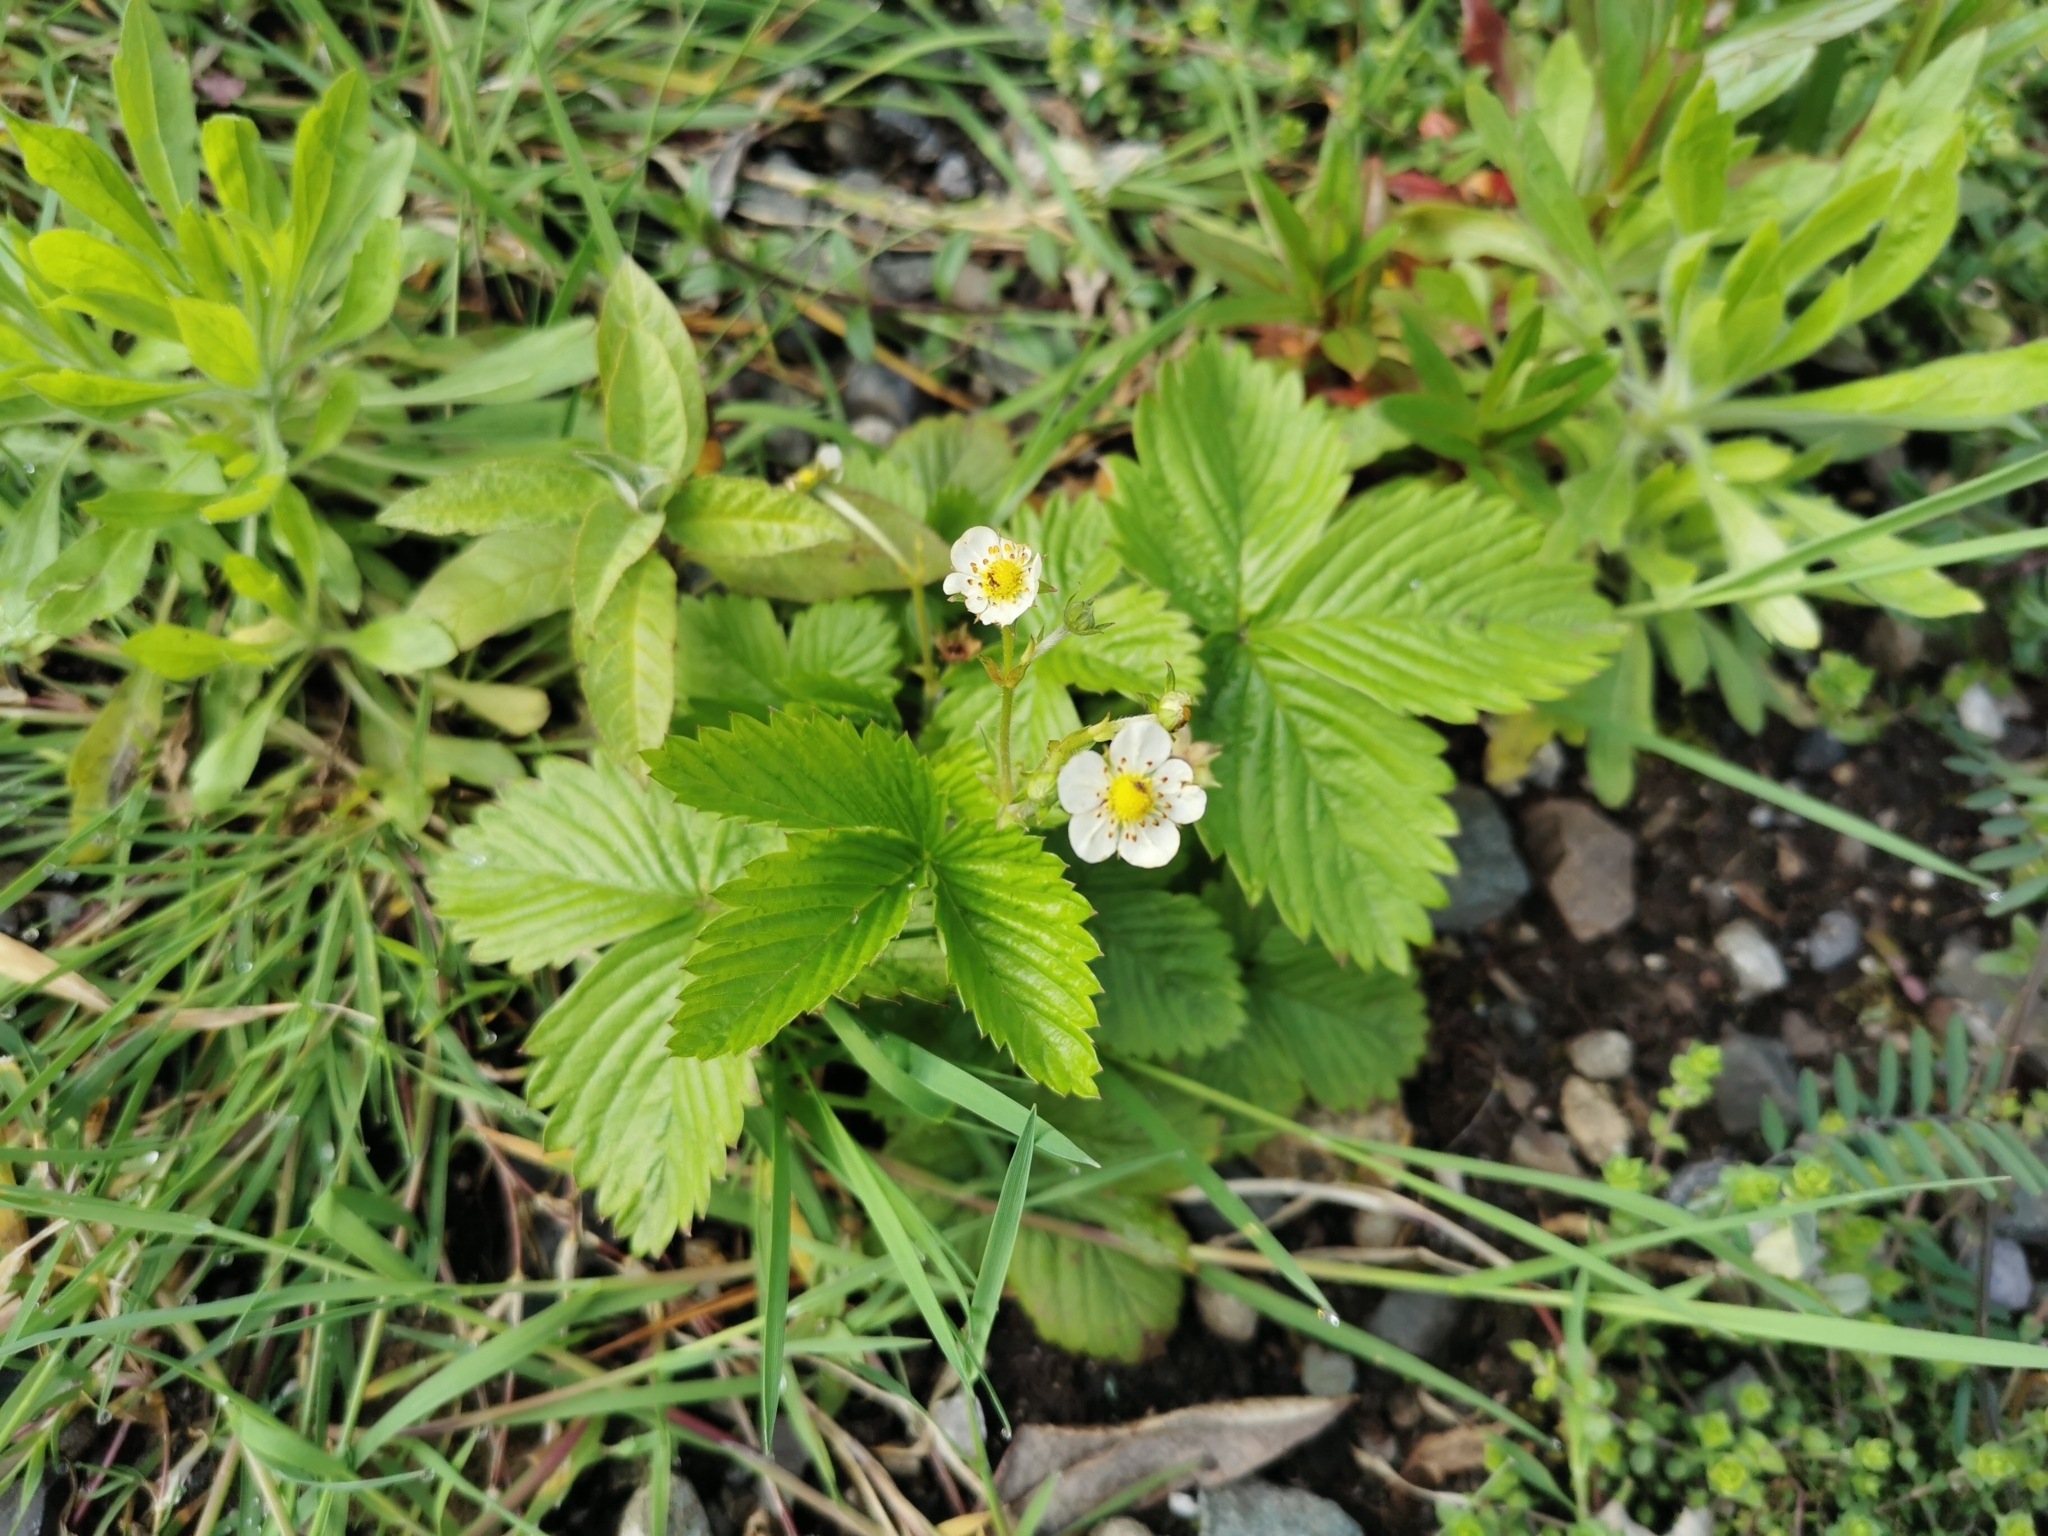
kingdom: Plantae
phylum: Tracheophyta
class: Magnoliopsida
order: Rosales
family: Rosaceae
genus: Fragaria
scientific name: Fragaria vesca
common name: Wild strawberry
